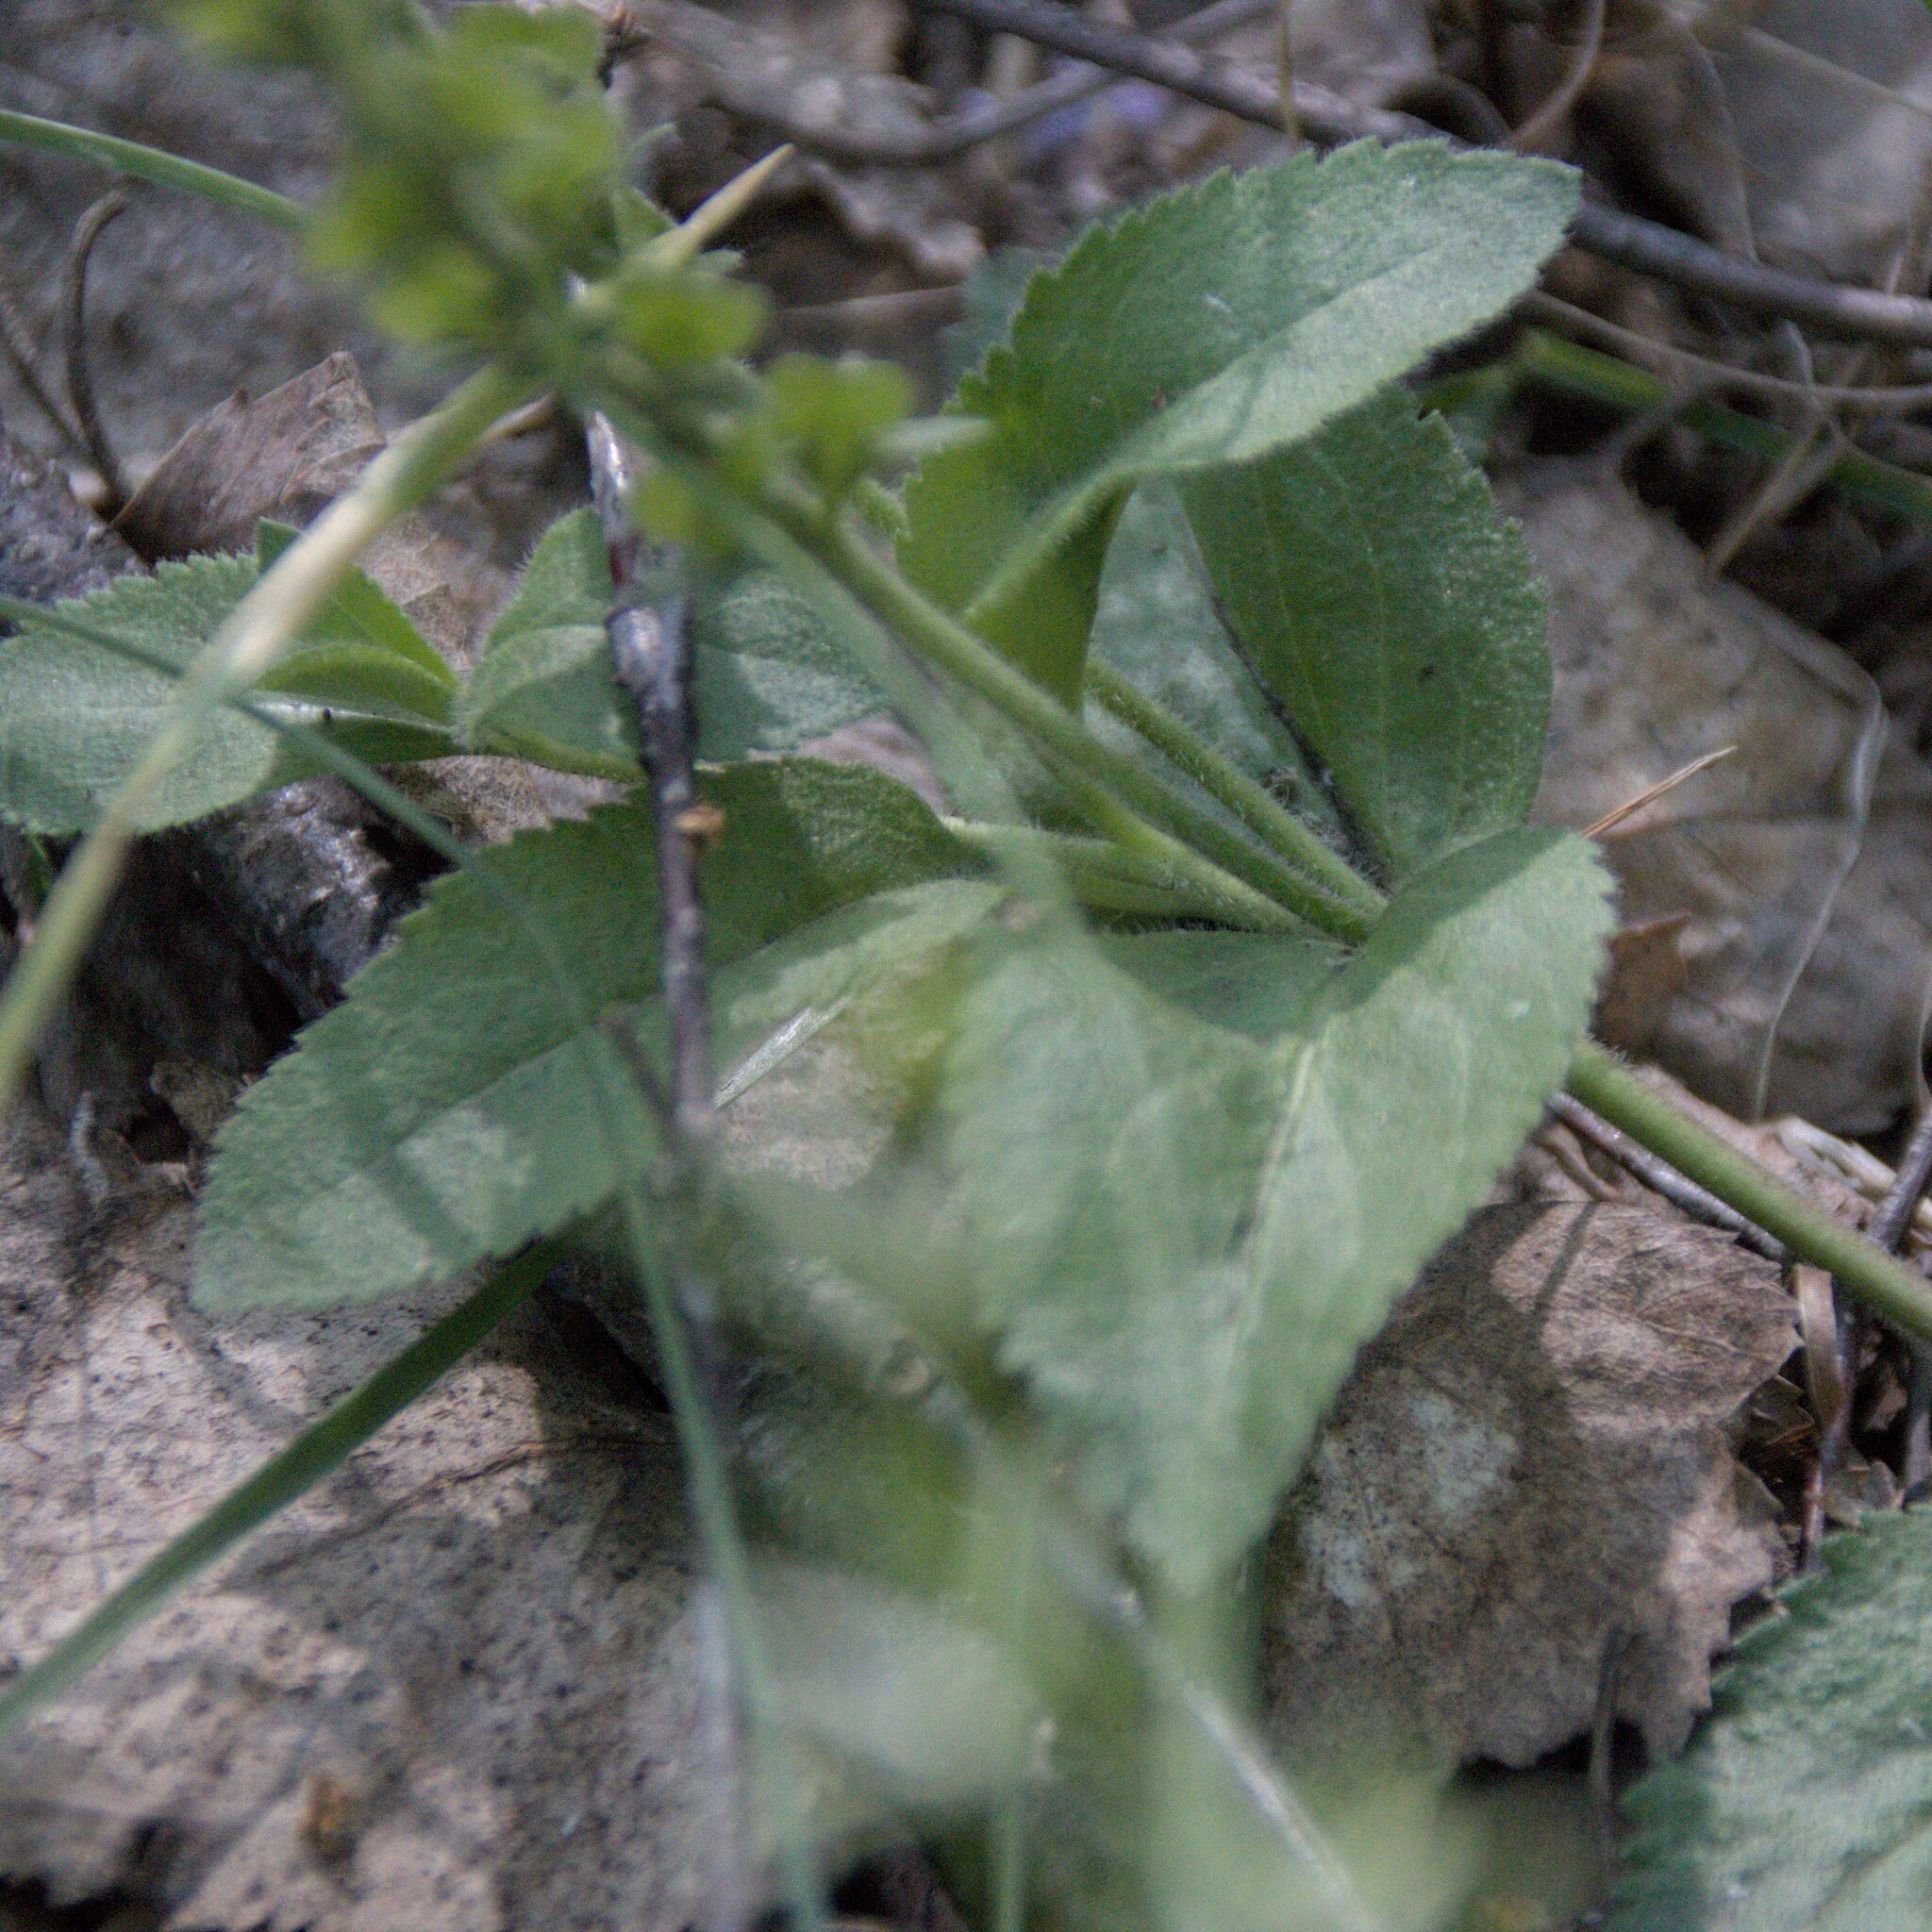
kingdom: Plantae
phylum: Tracheophyta
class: Magnoliopsida
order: Lamiales
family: Plantaginaceae
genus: Veronica
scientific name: Veronica officinalis
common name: Common speedwell
